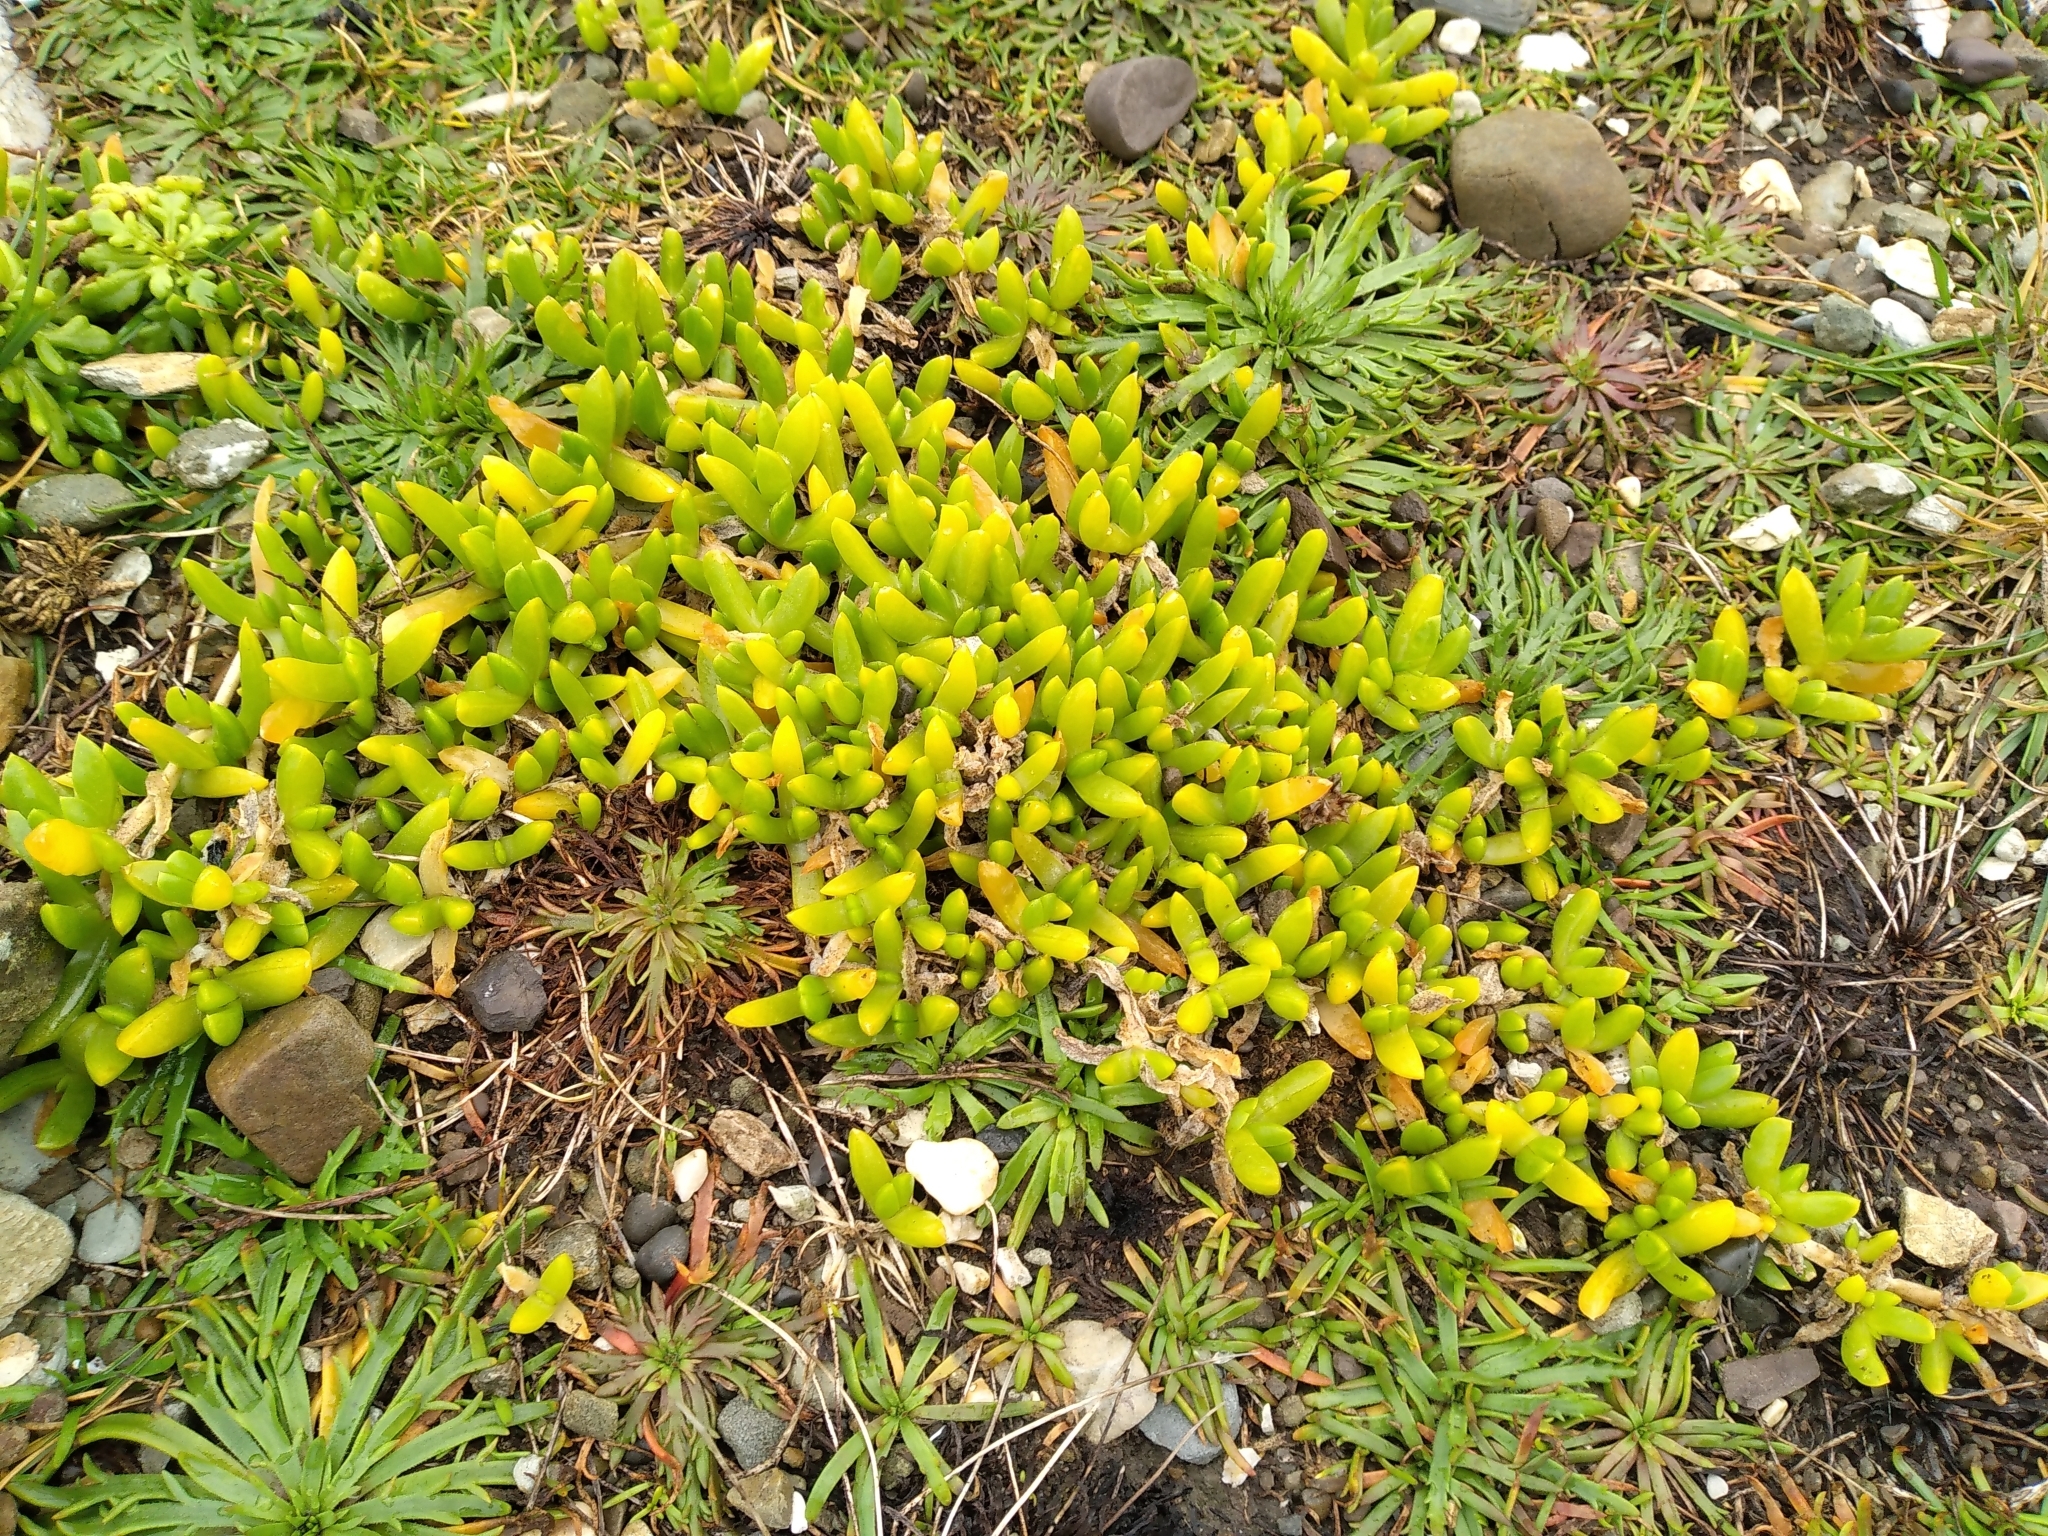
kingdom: Plantae
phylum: Tracheophyta
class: Magnoliopsida
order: Caryophyllales
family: Aizoaceae
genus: Disphyma
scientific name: Disphyma australe
